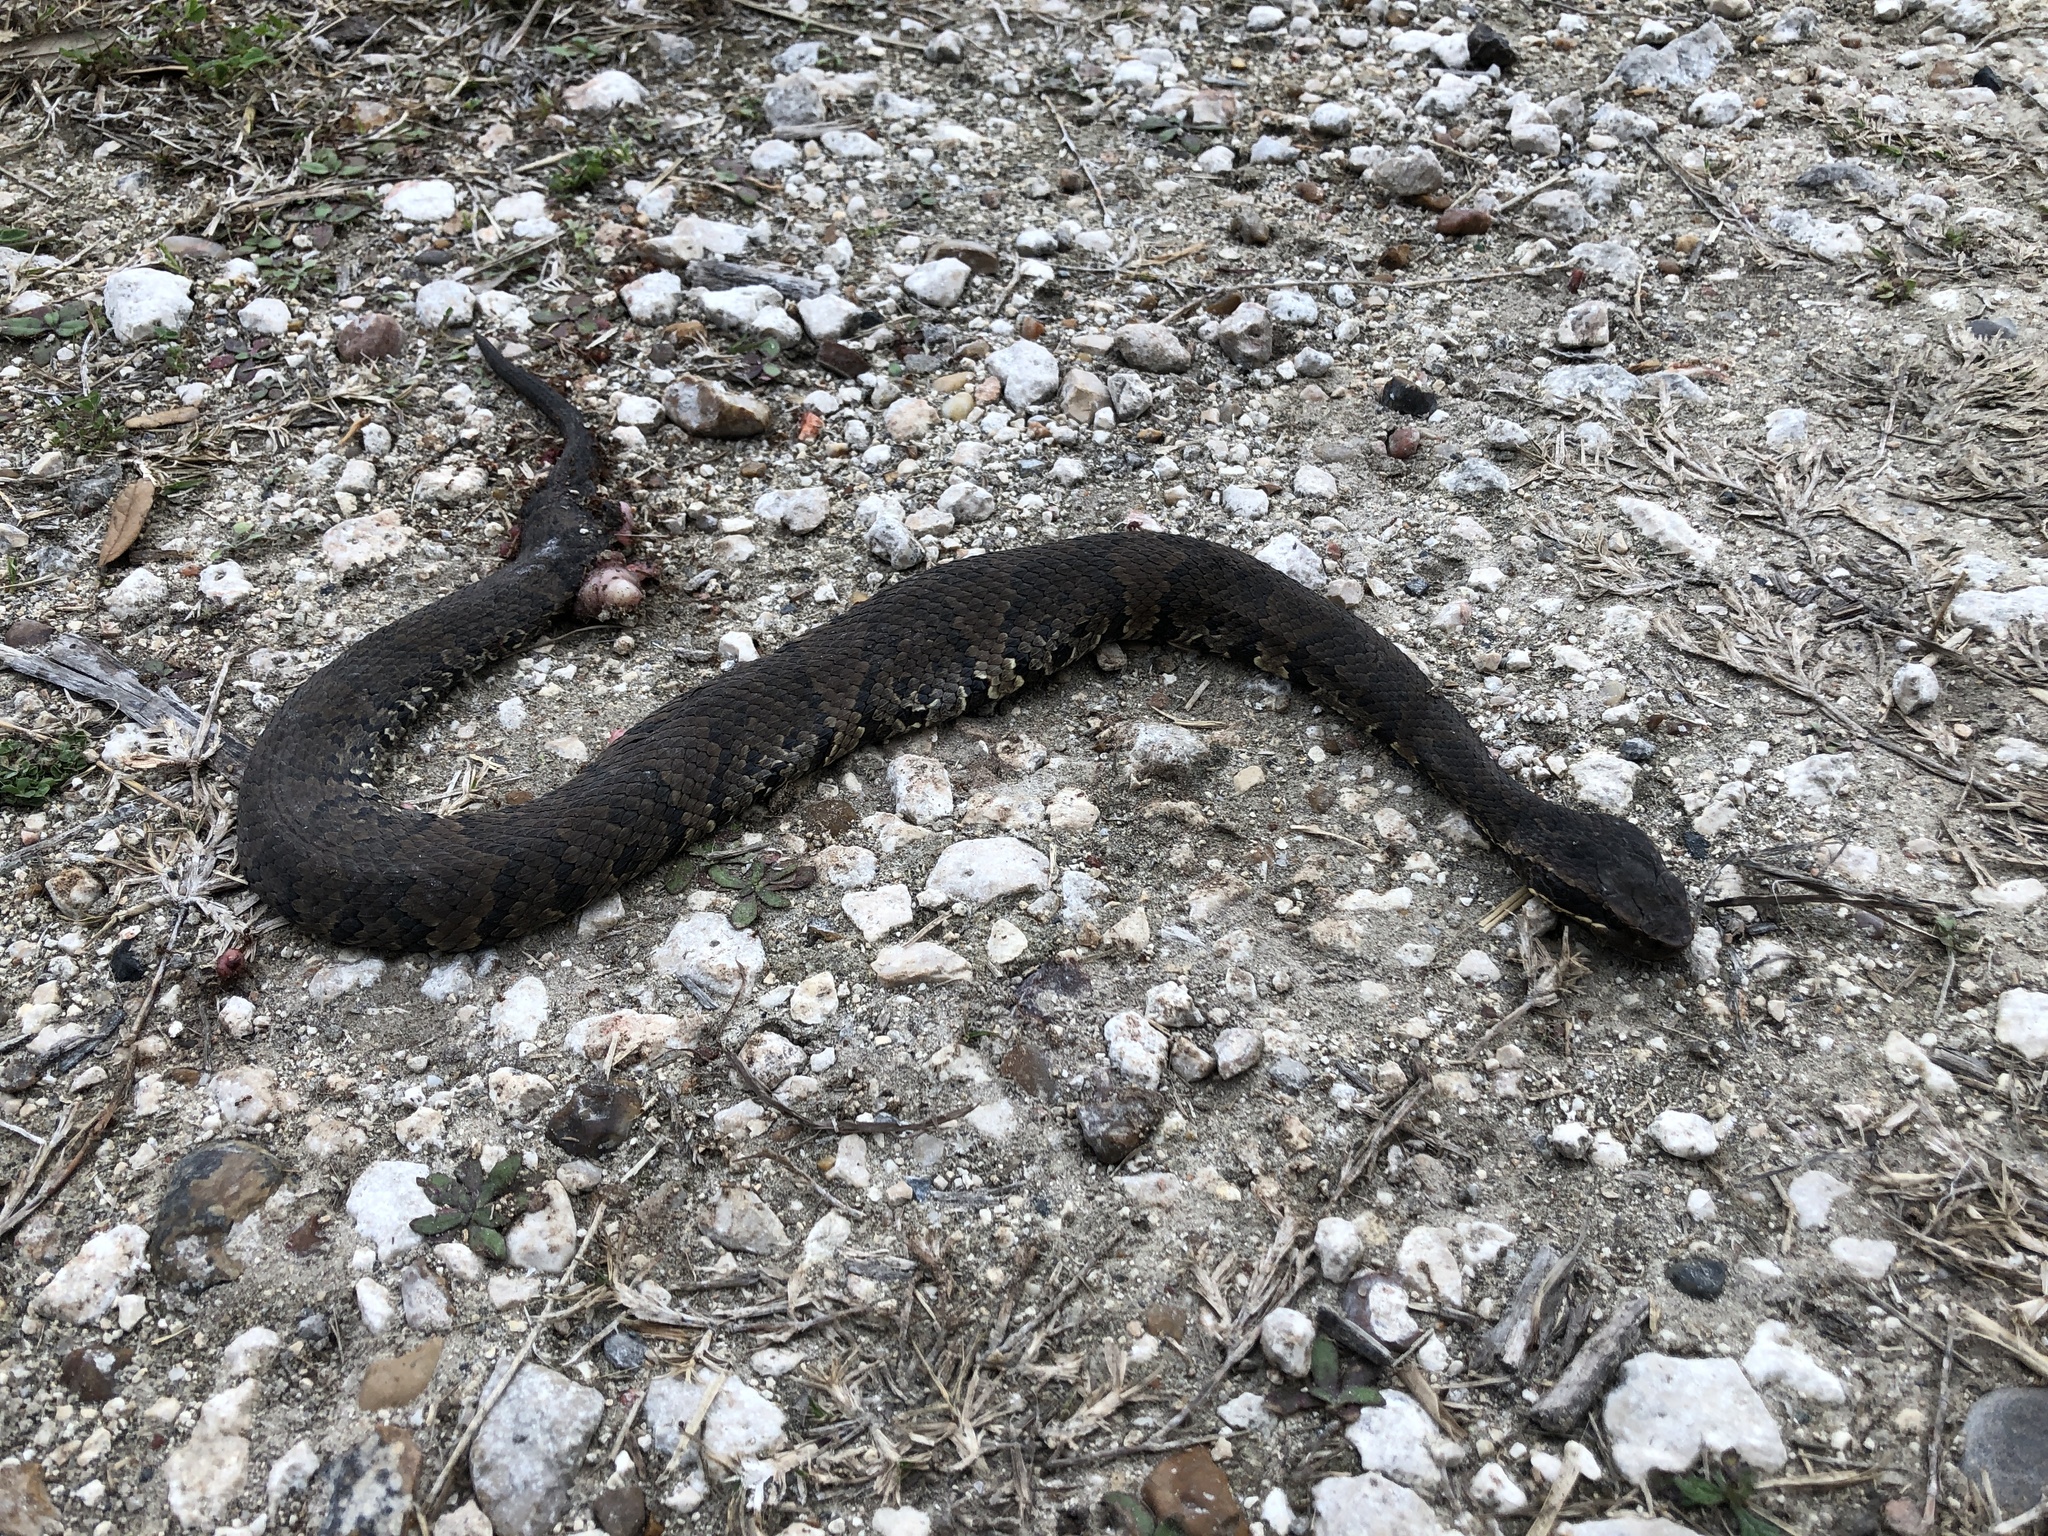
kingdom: Animalia
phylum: Chordata
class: Squamata
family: Viperidae
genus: Agkistrodon
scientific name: Agkistrodon piscivorus
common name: Cottonmouth
